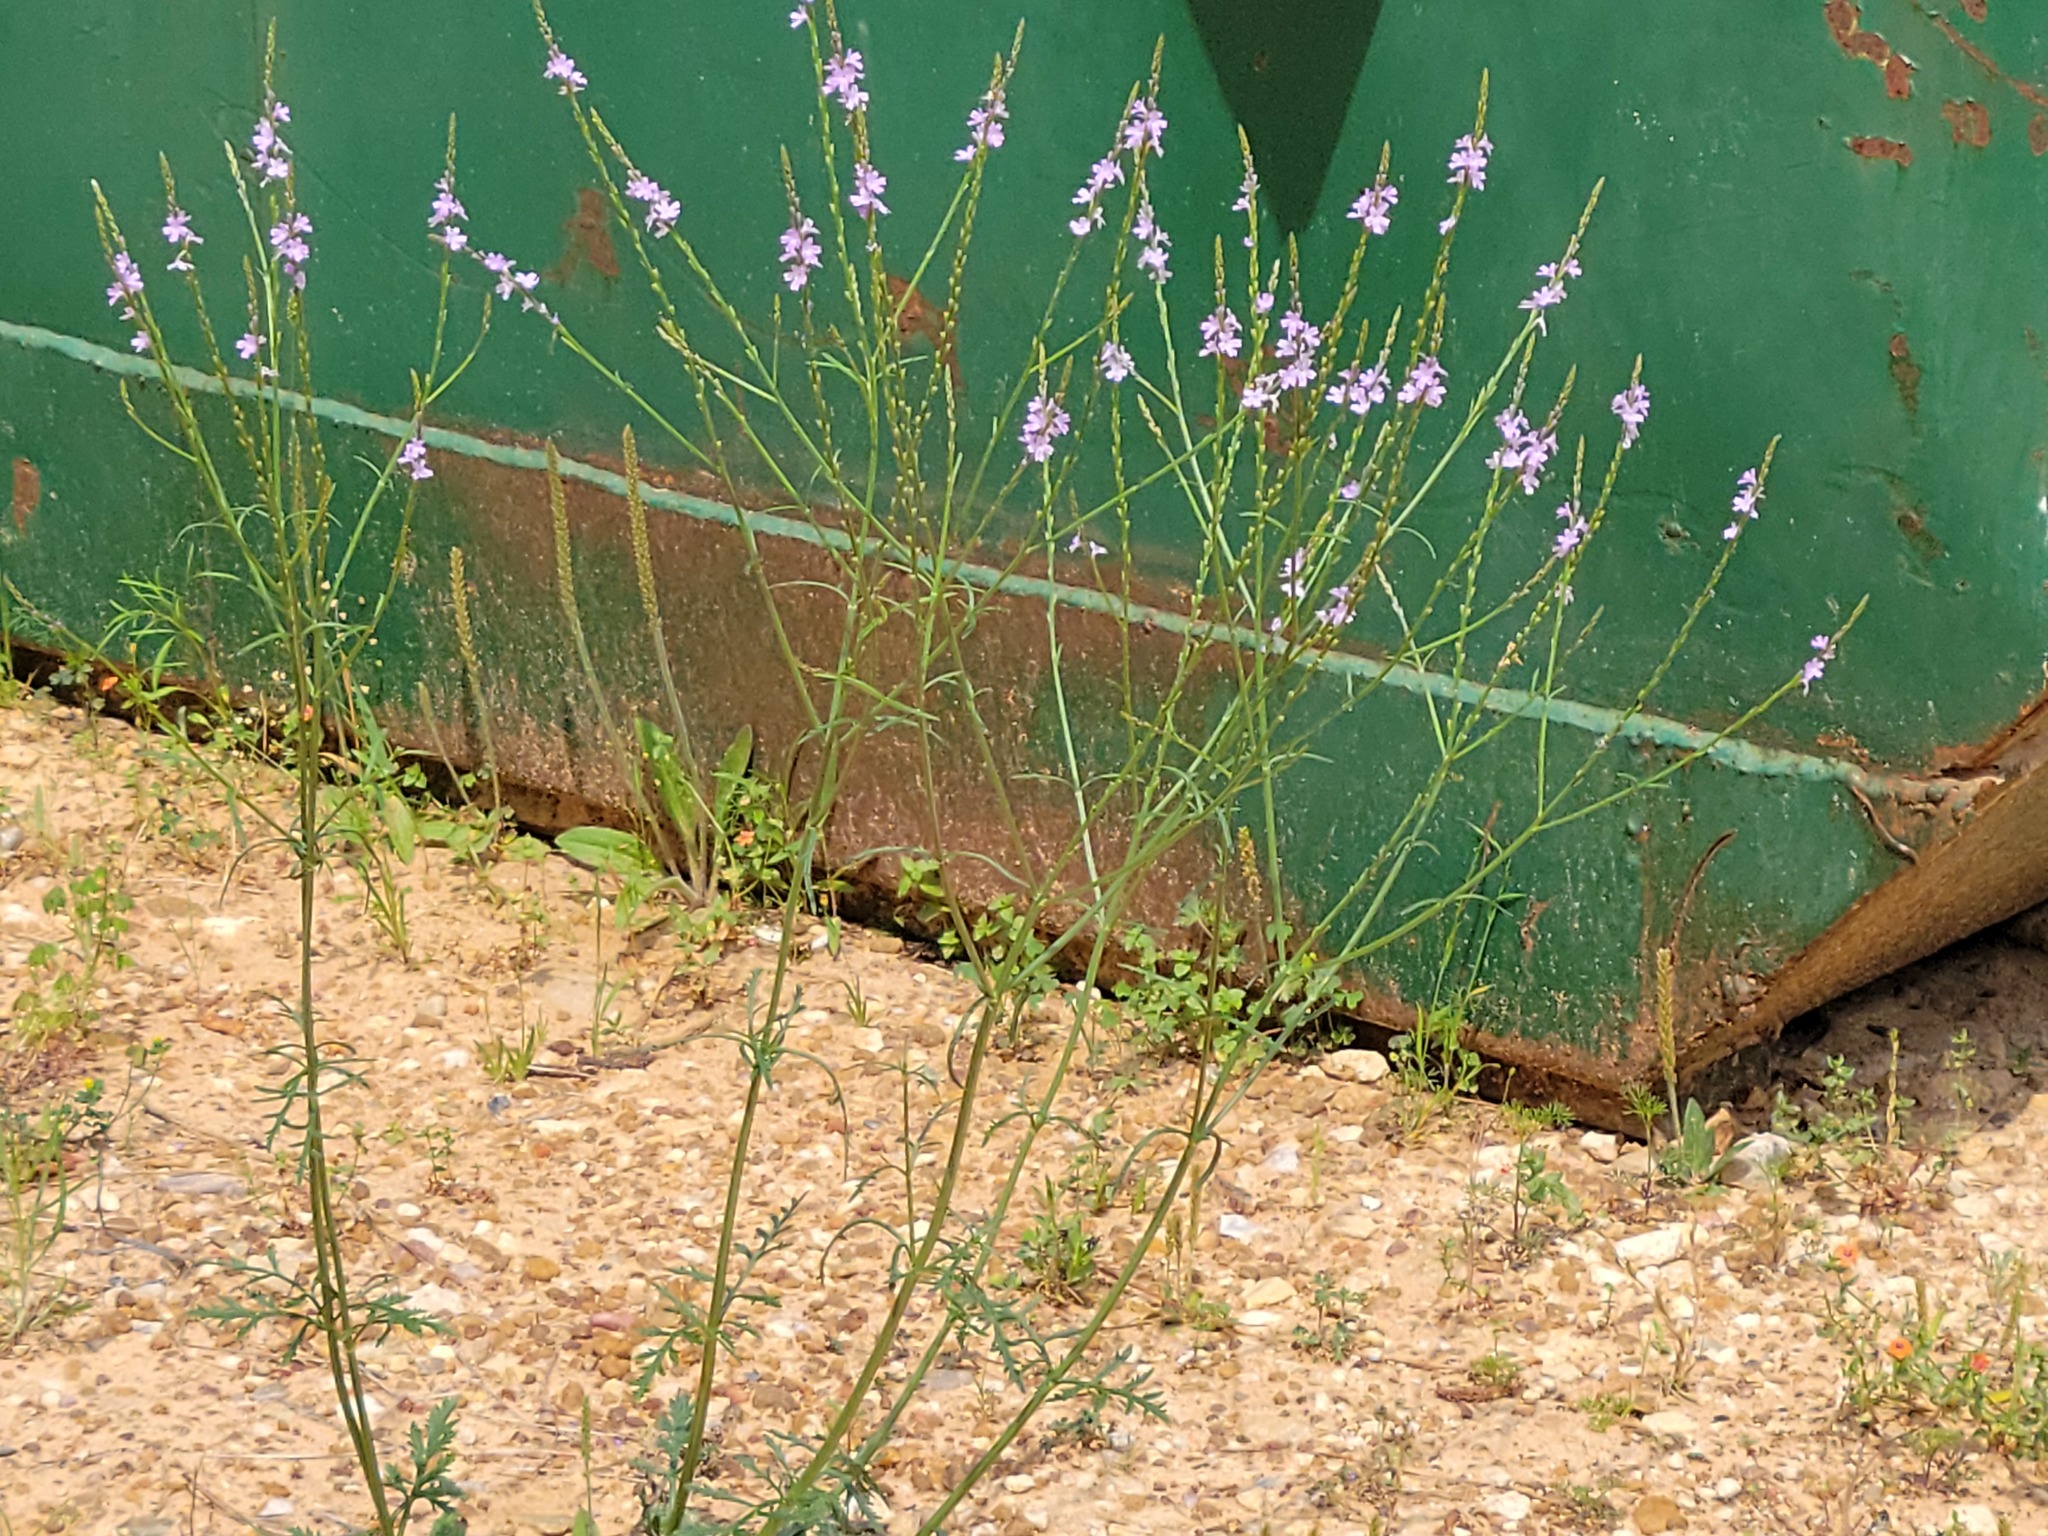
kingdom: Plantae
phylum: Tracheophyta
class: Magnoliopsida
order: Lamiales
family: Verbenaceae
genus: Verbena
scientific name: Verbena halei
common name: Texas vervain
